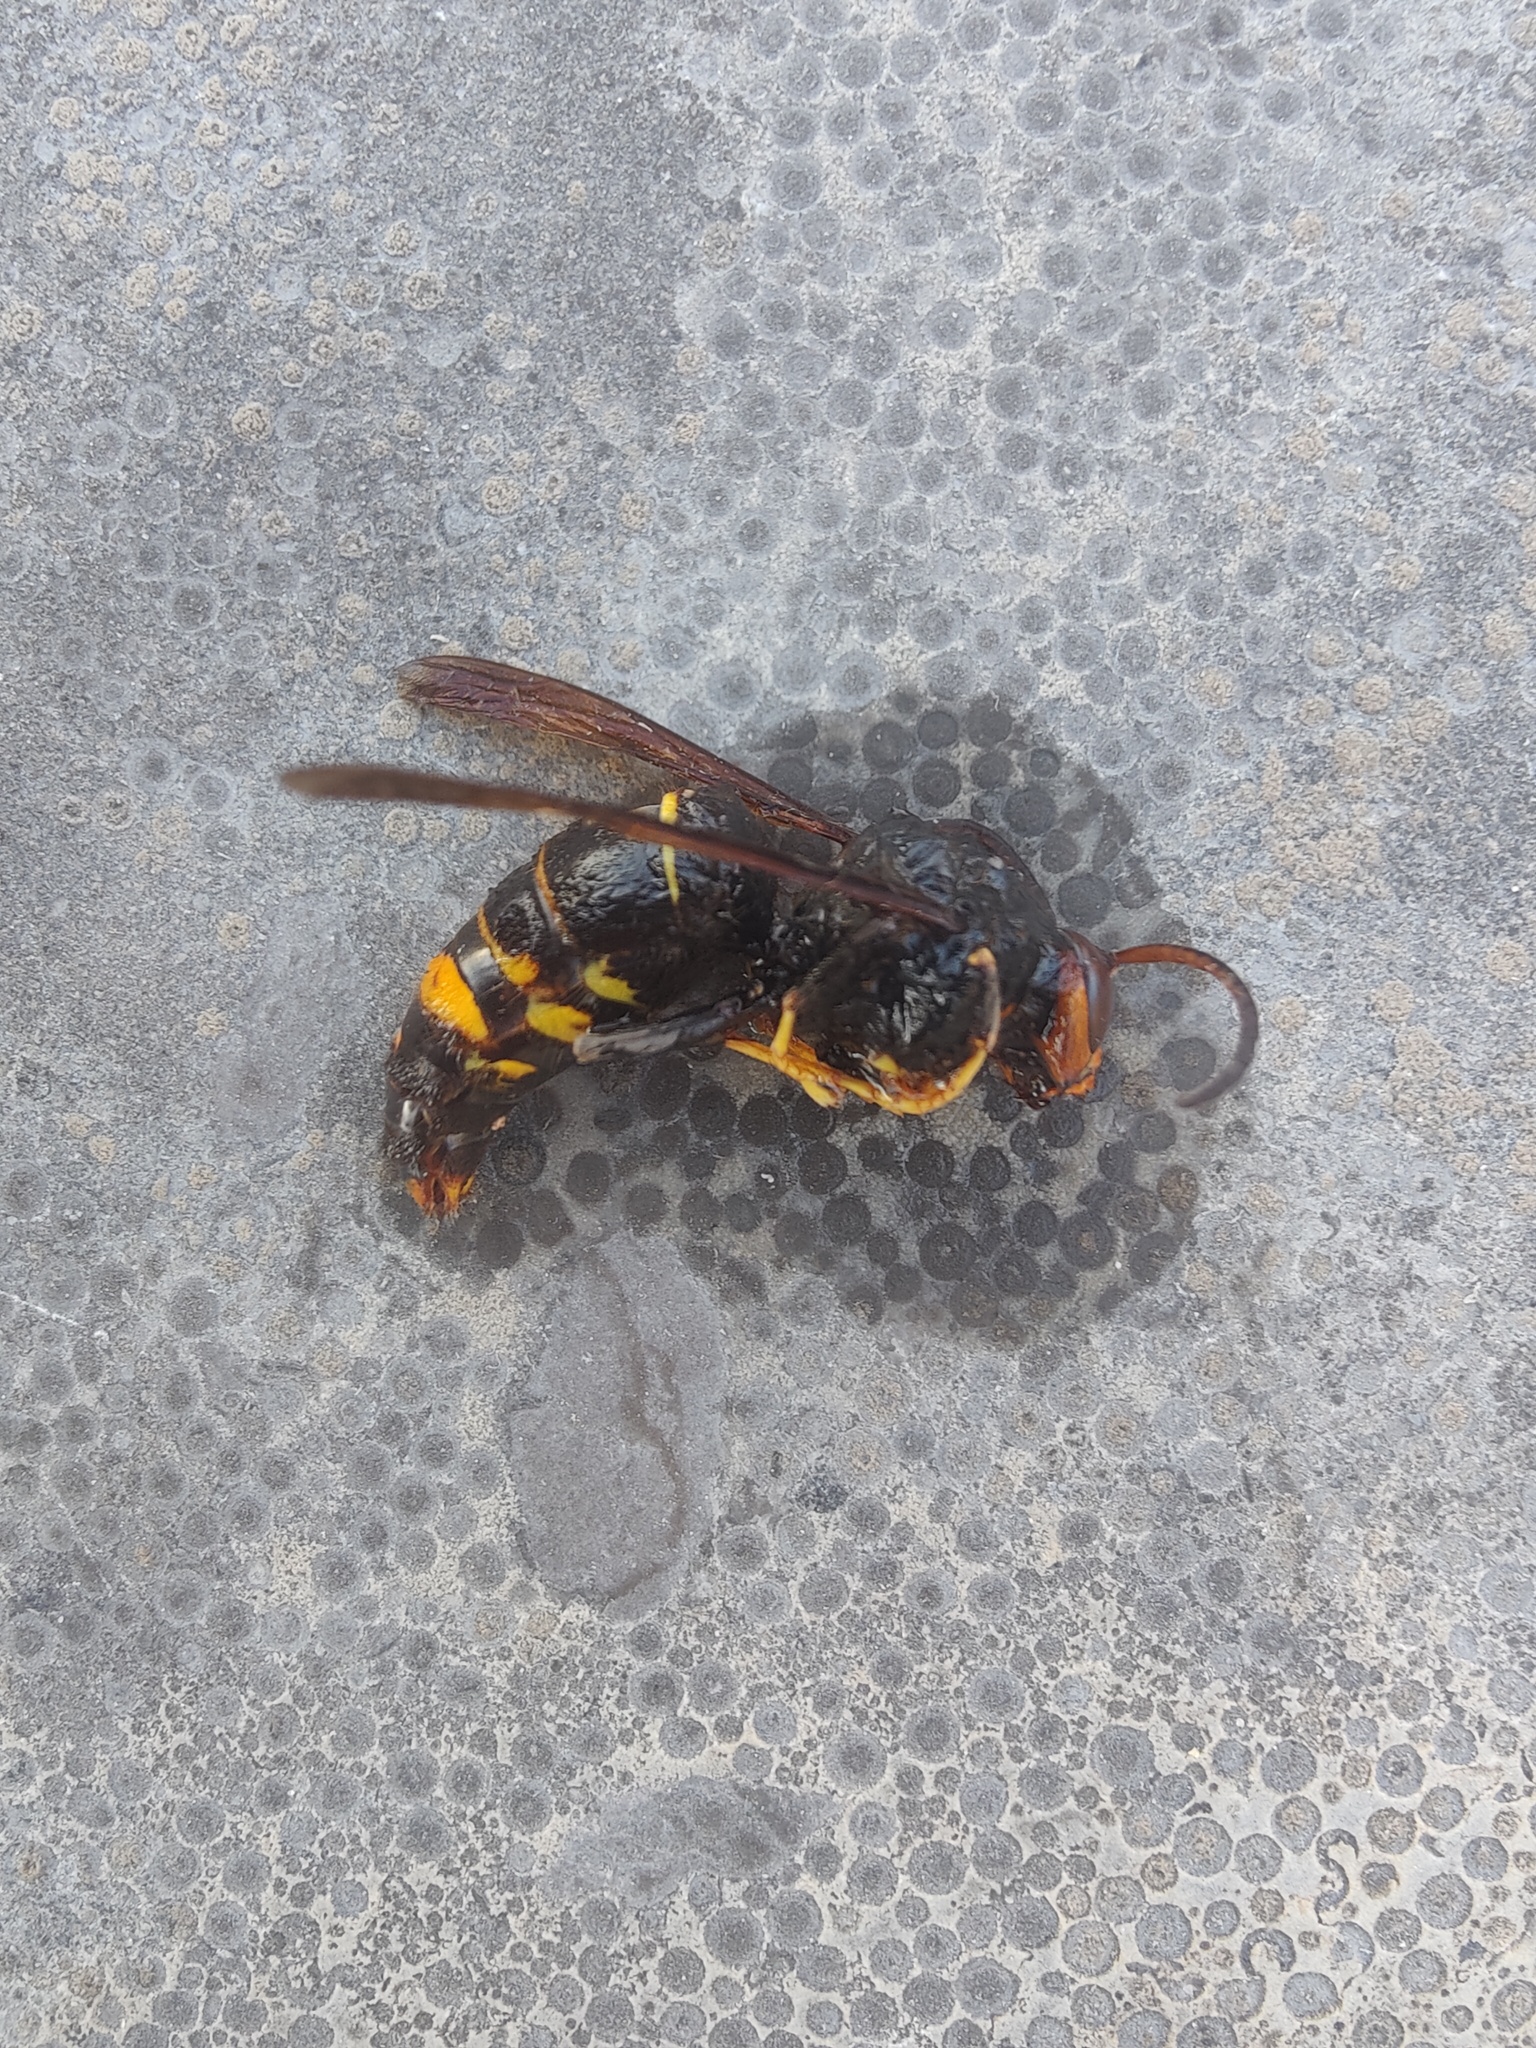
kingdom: Animalia
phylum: Arthropoda
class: Insecta
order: Hymenoptera
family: Vespidae
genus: Vespa
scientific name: Vespa velutina
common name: Asian hornet
